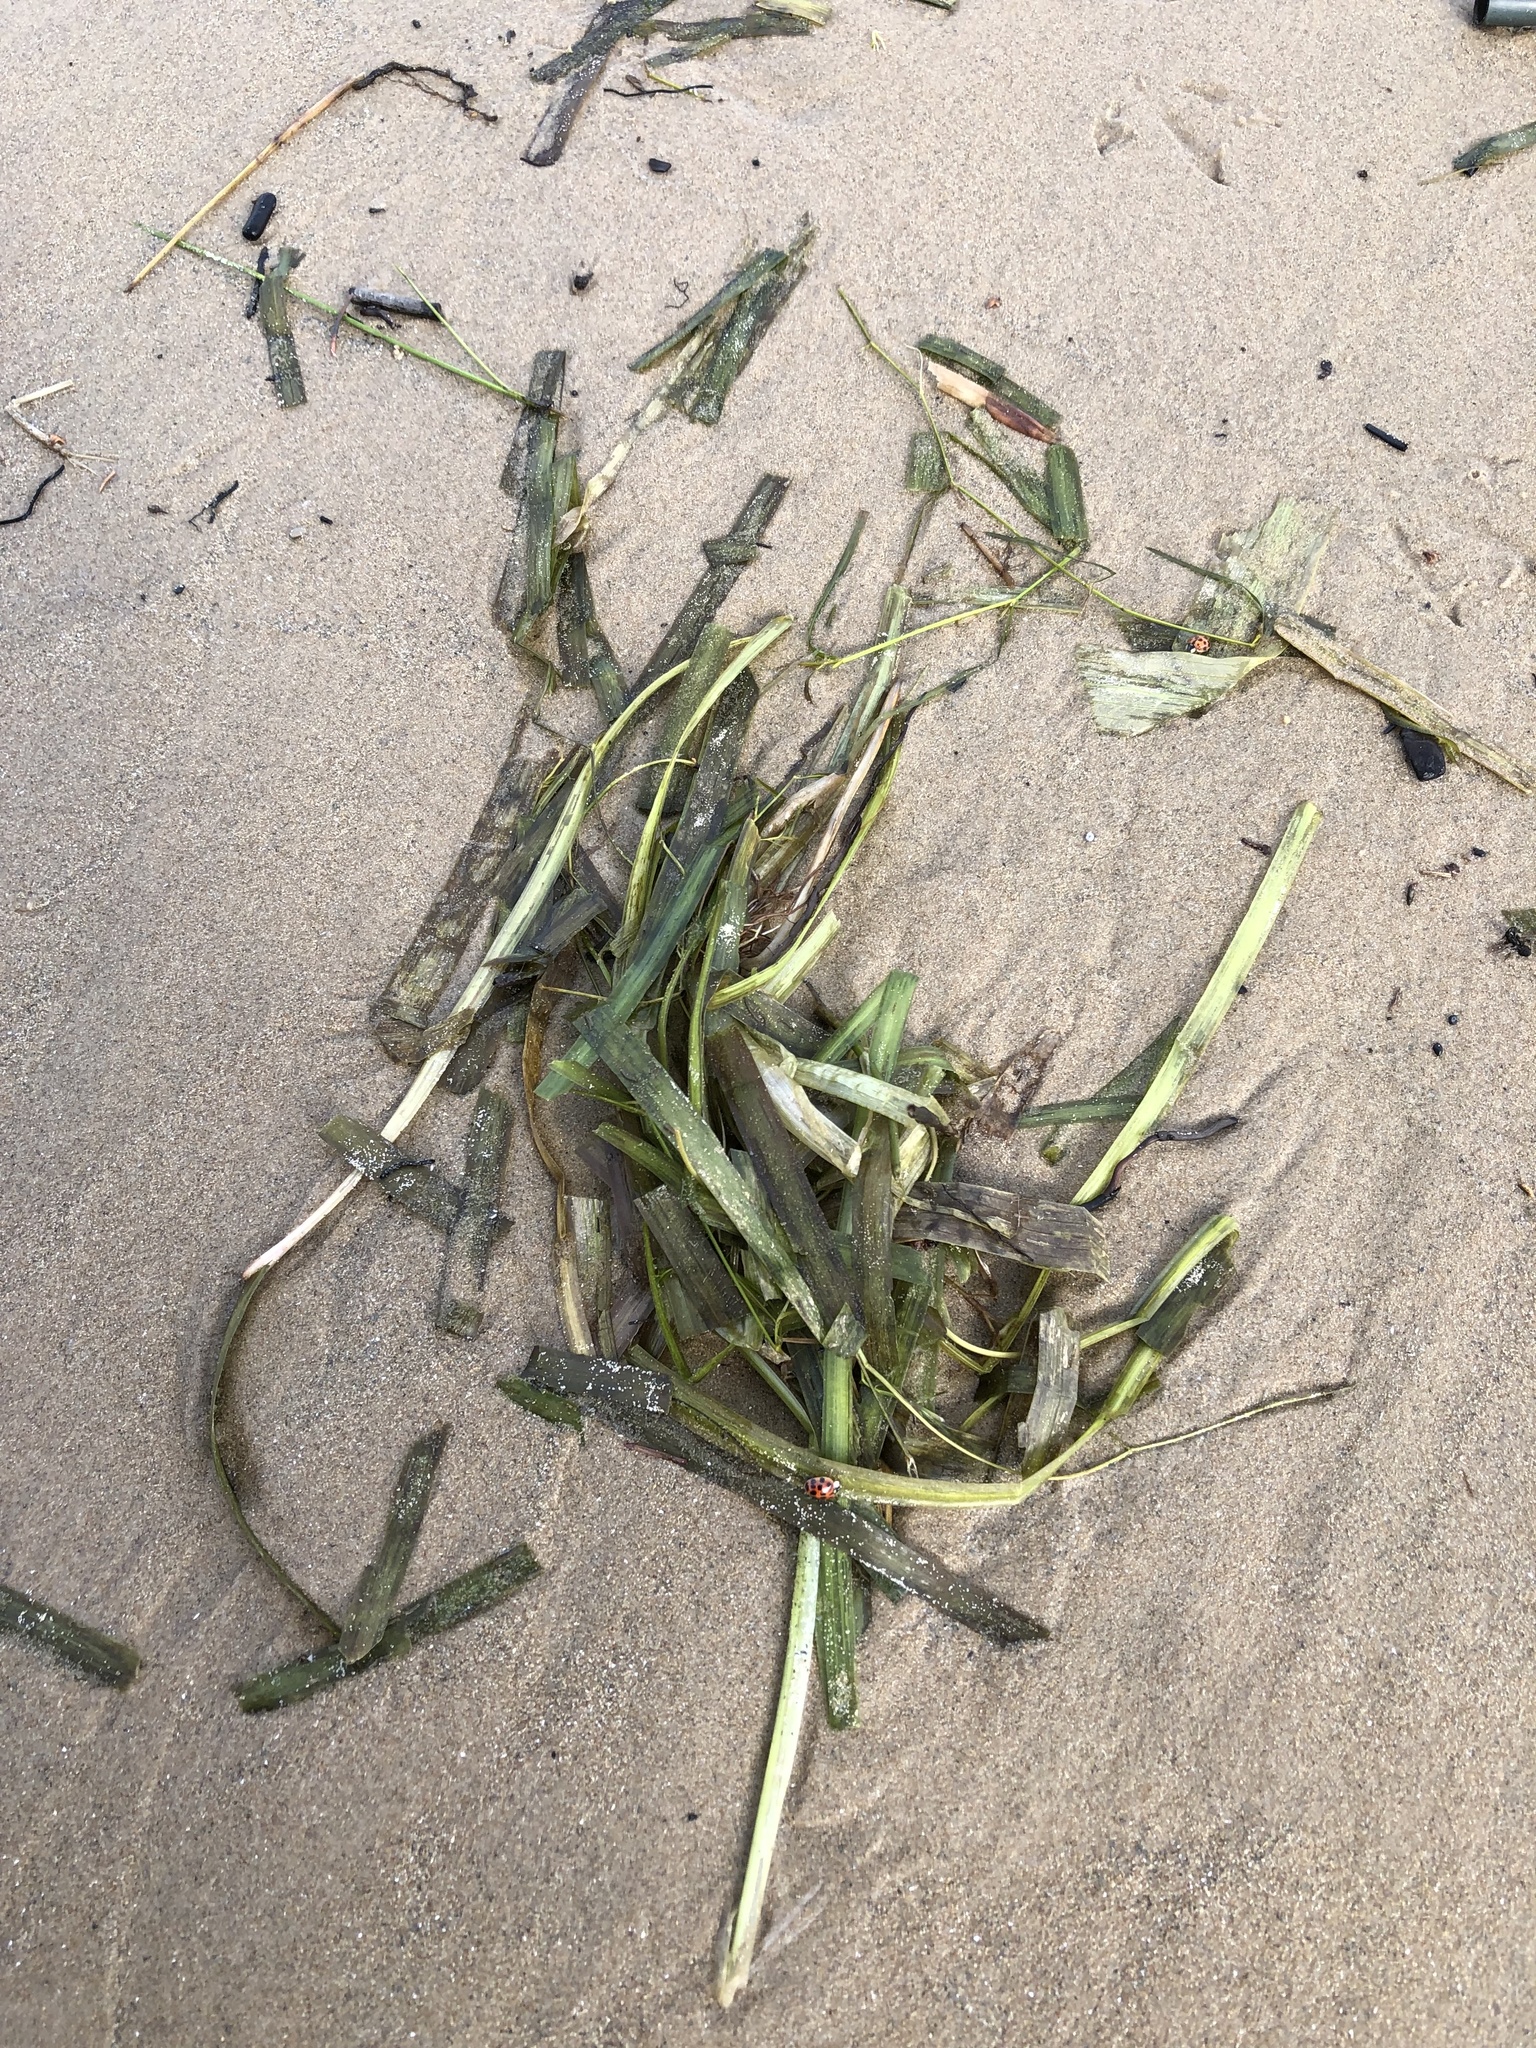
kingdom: Plantae
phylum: Tracheophyta
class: Liliopsida
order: Alismatales
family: Hydrocharitaceae
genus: Vallisneria
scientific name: Vallisneria americana
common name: American eelgrass
